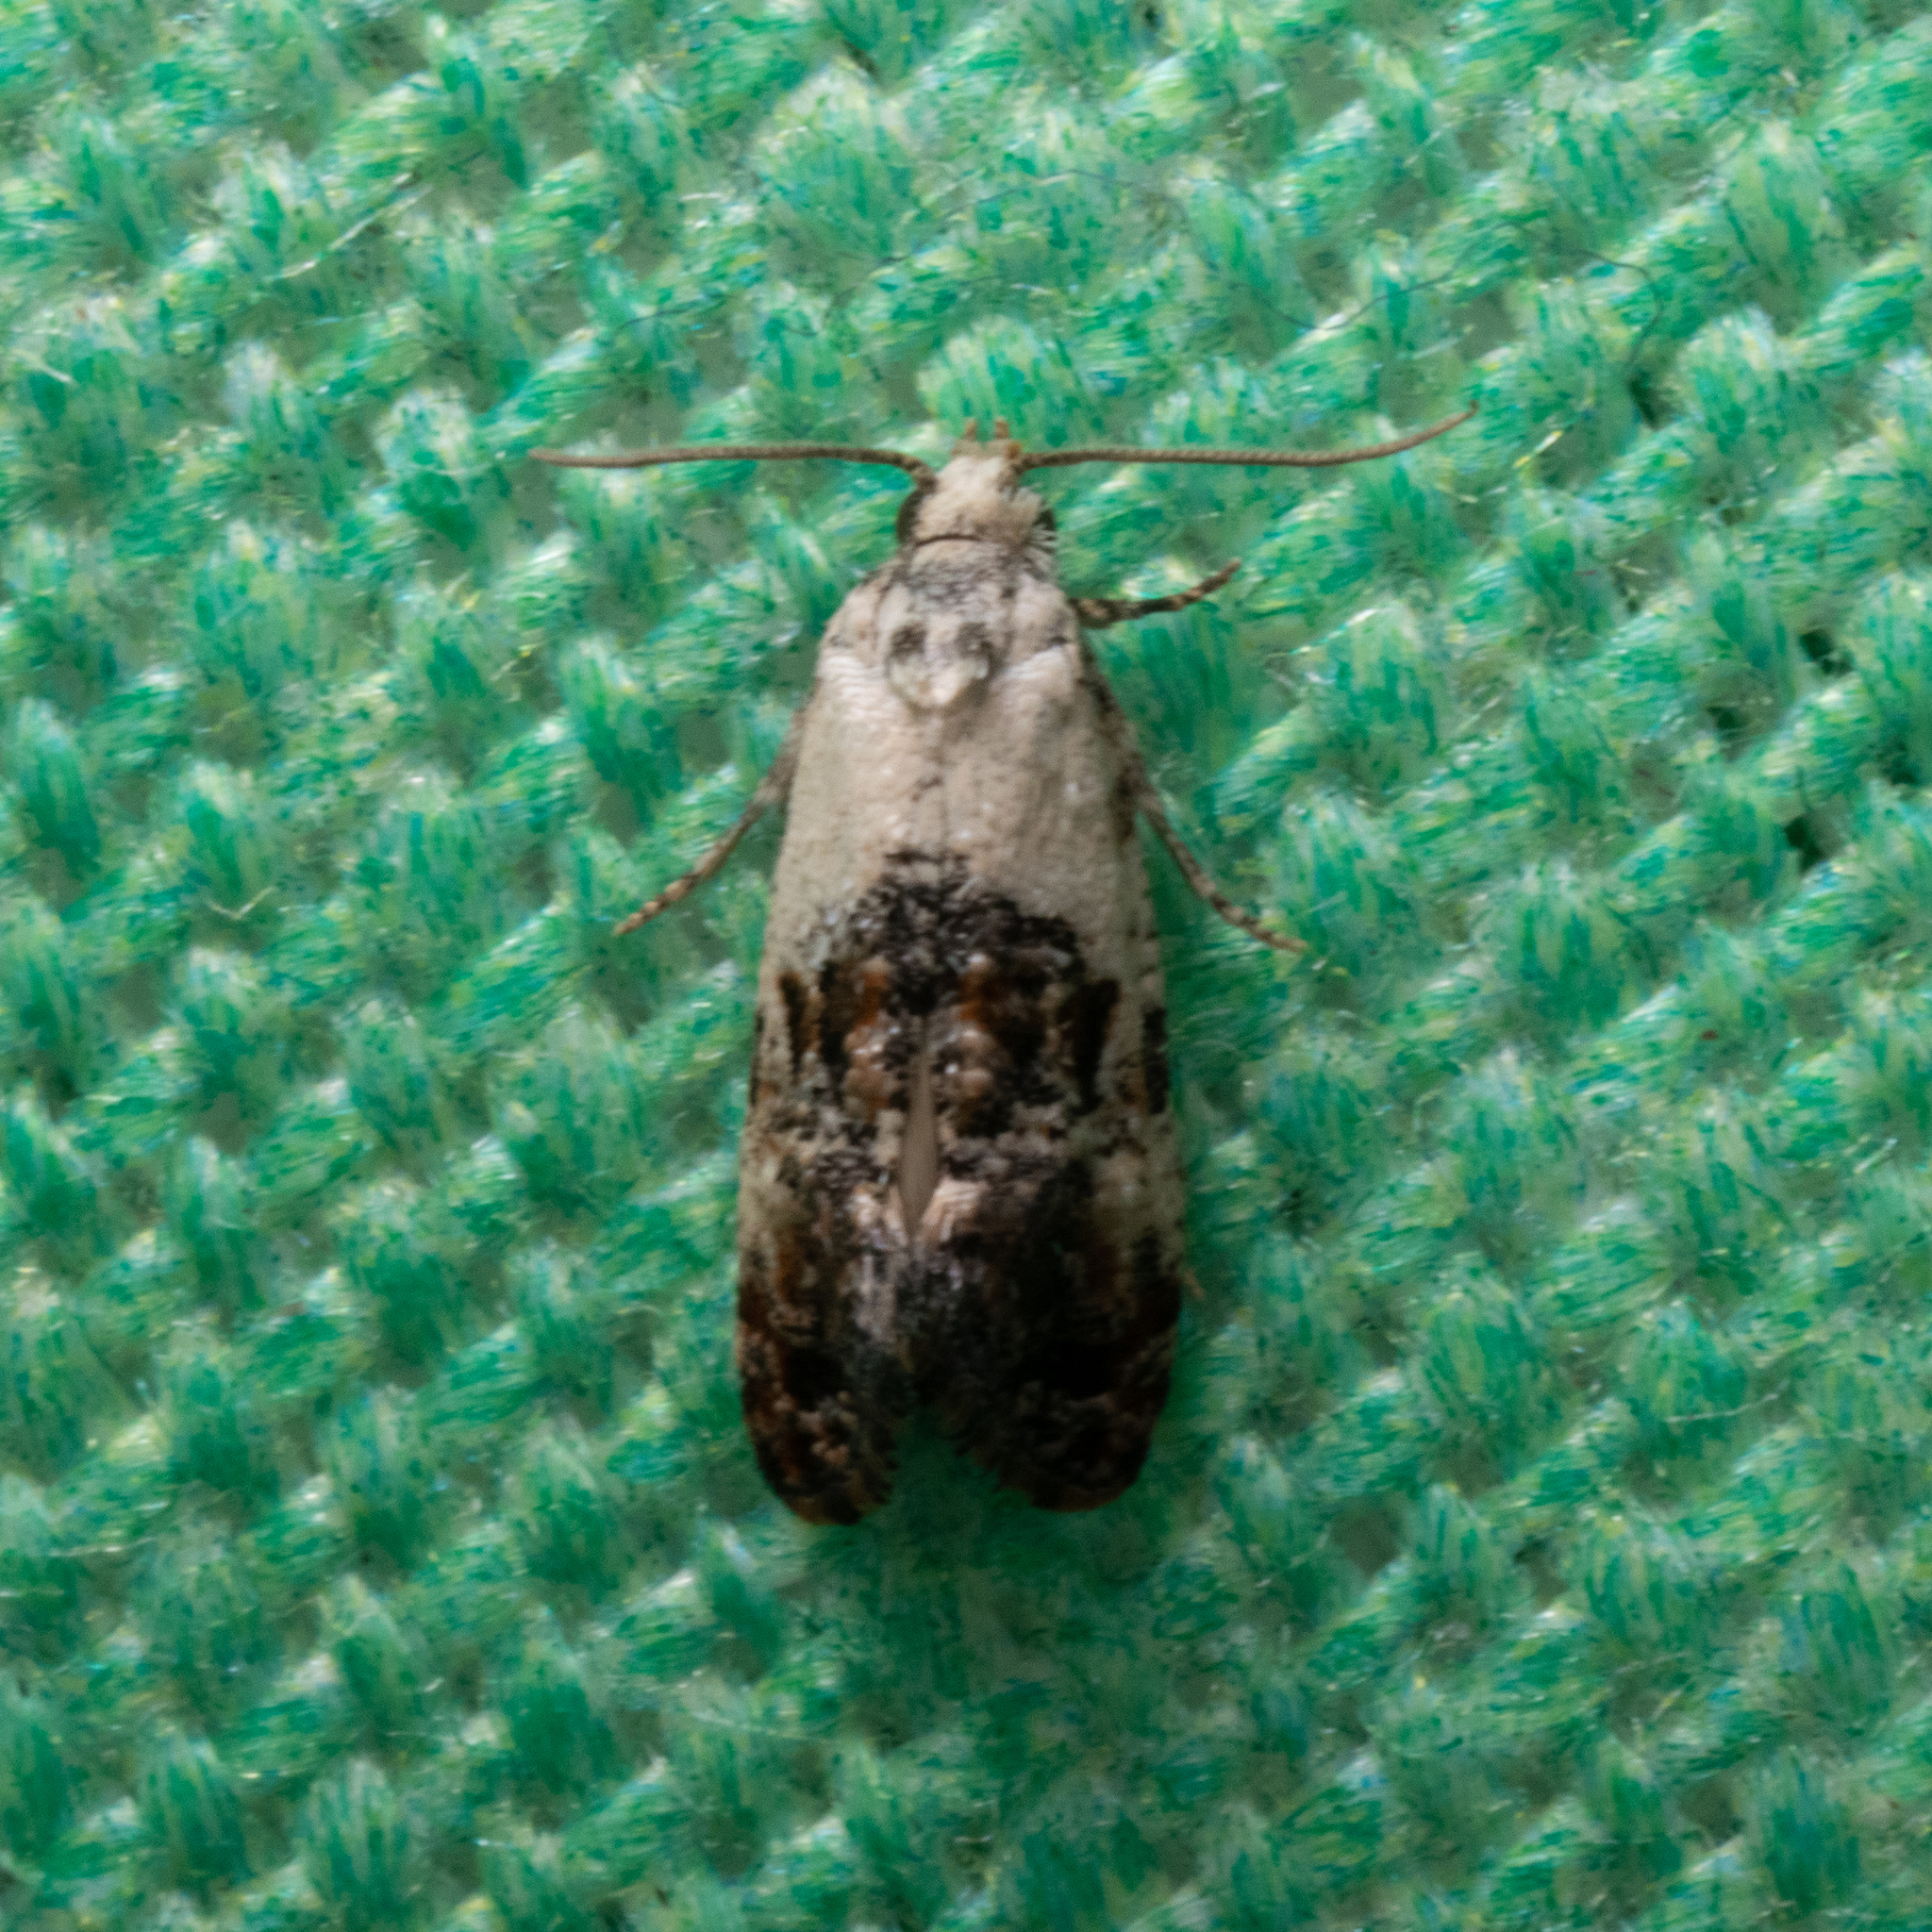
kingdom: Animalia
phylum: Arthropoda
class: Insecta
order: Lepidoptera
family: Tortricidae
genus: Eugnosta
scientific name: Eugnosta erigeronana
